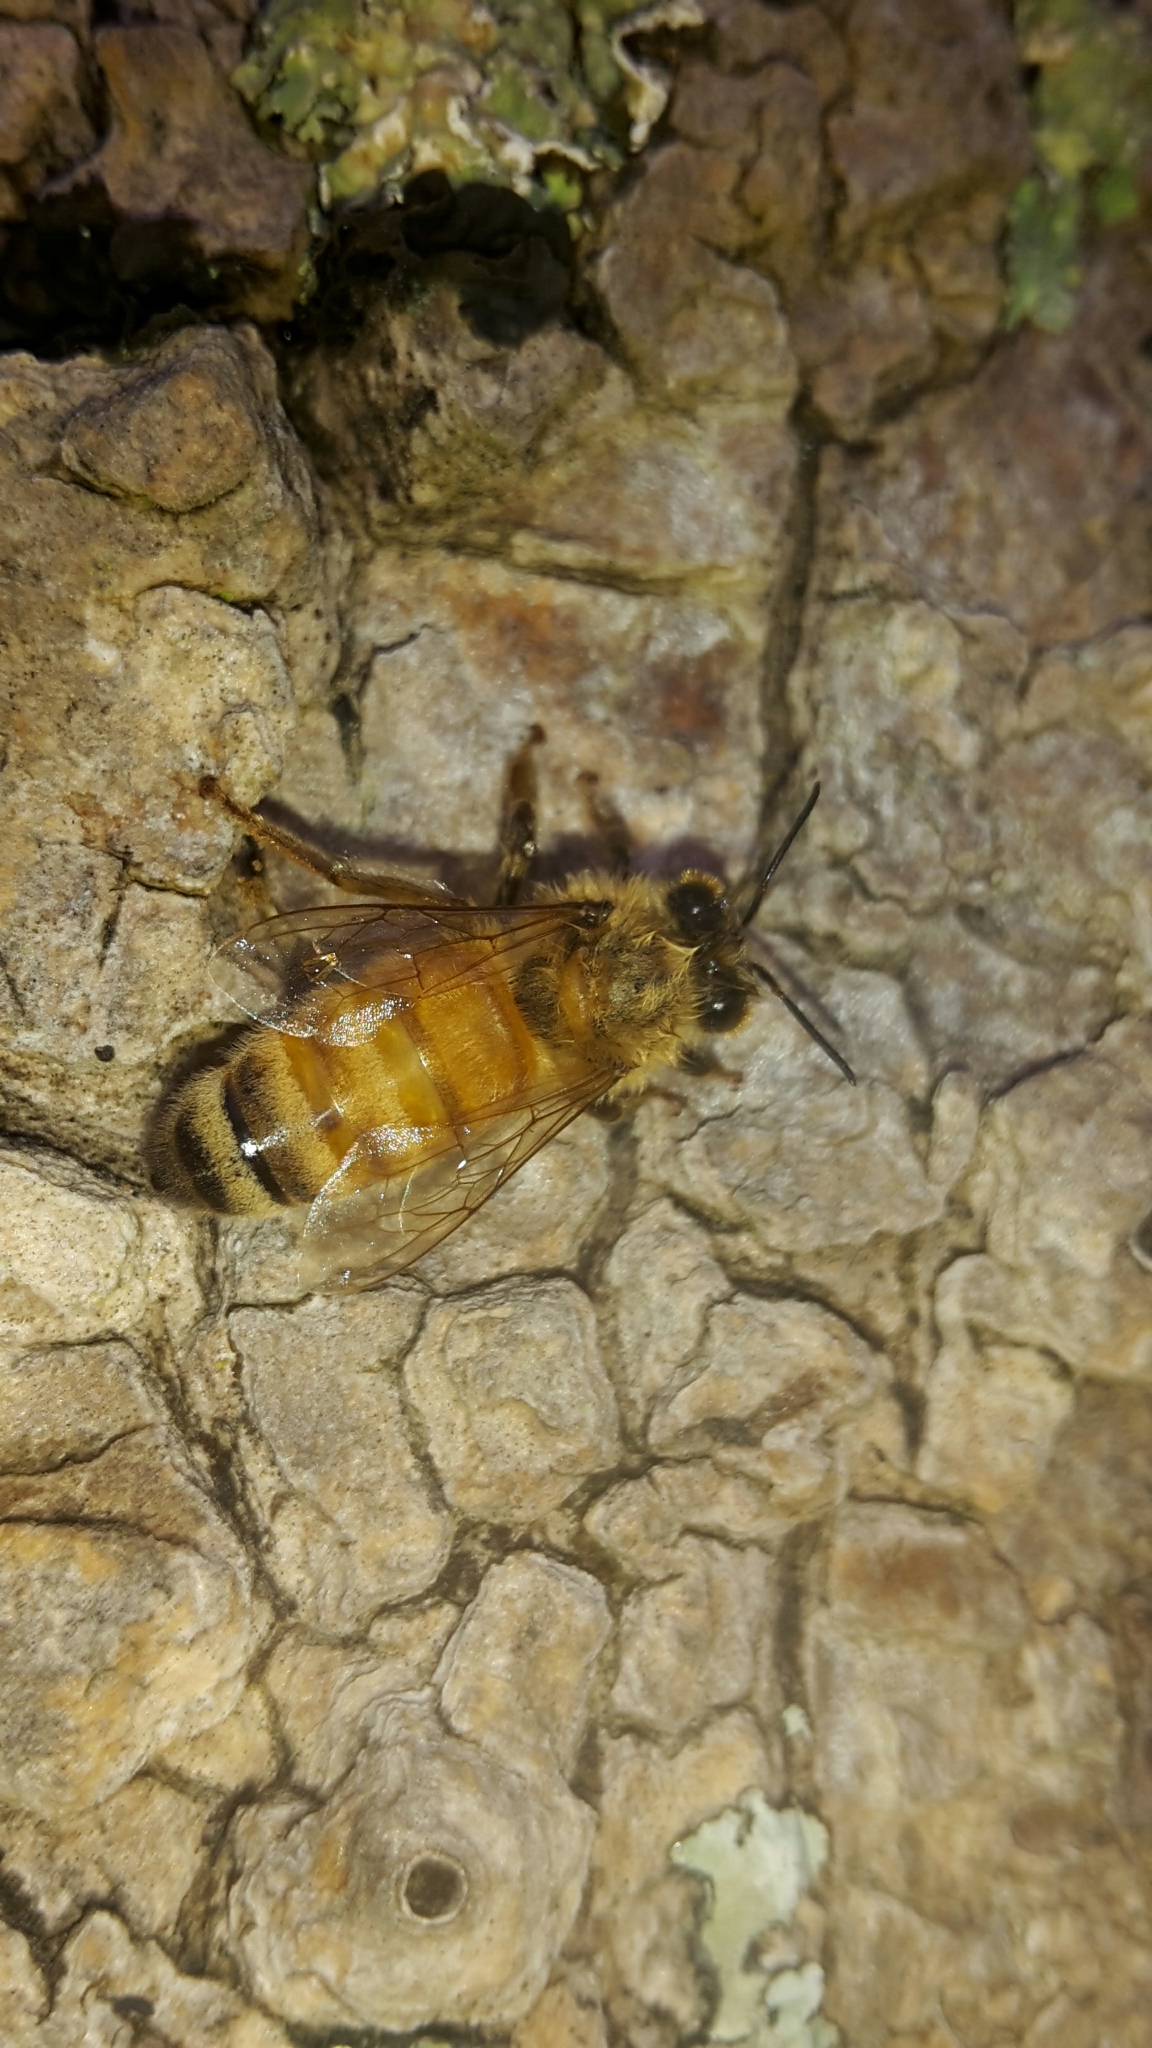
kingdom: Animalia
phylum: Arthropoda
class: Insecta
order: Hymenoptera
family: Apidae
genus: Apis
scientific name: Apis mellifera
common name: Honey bee
